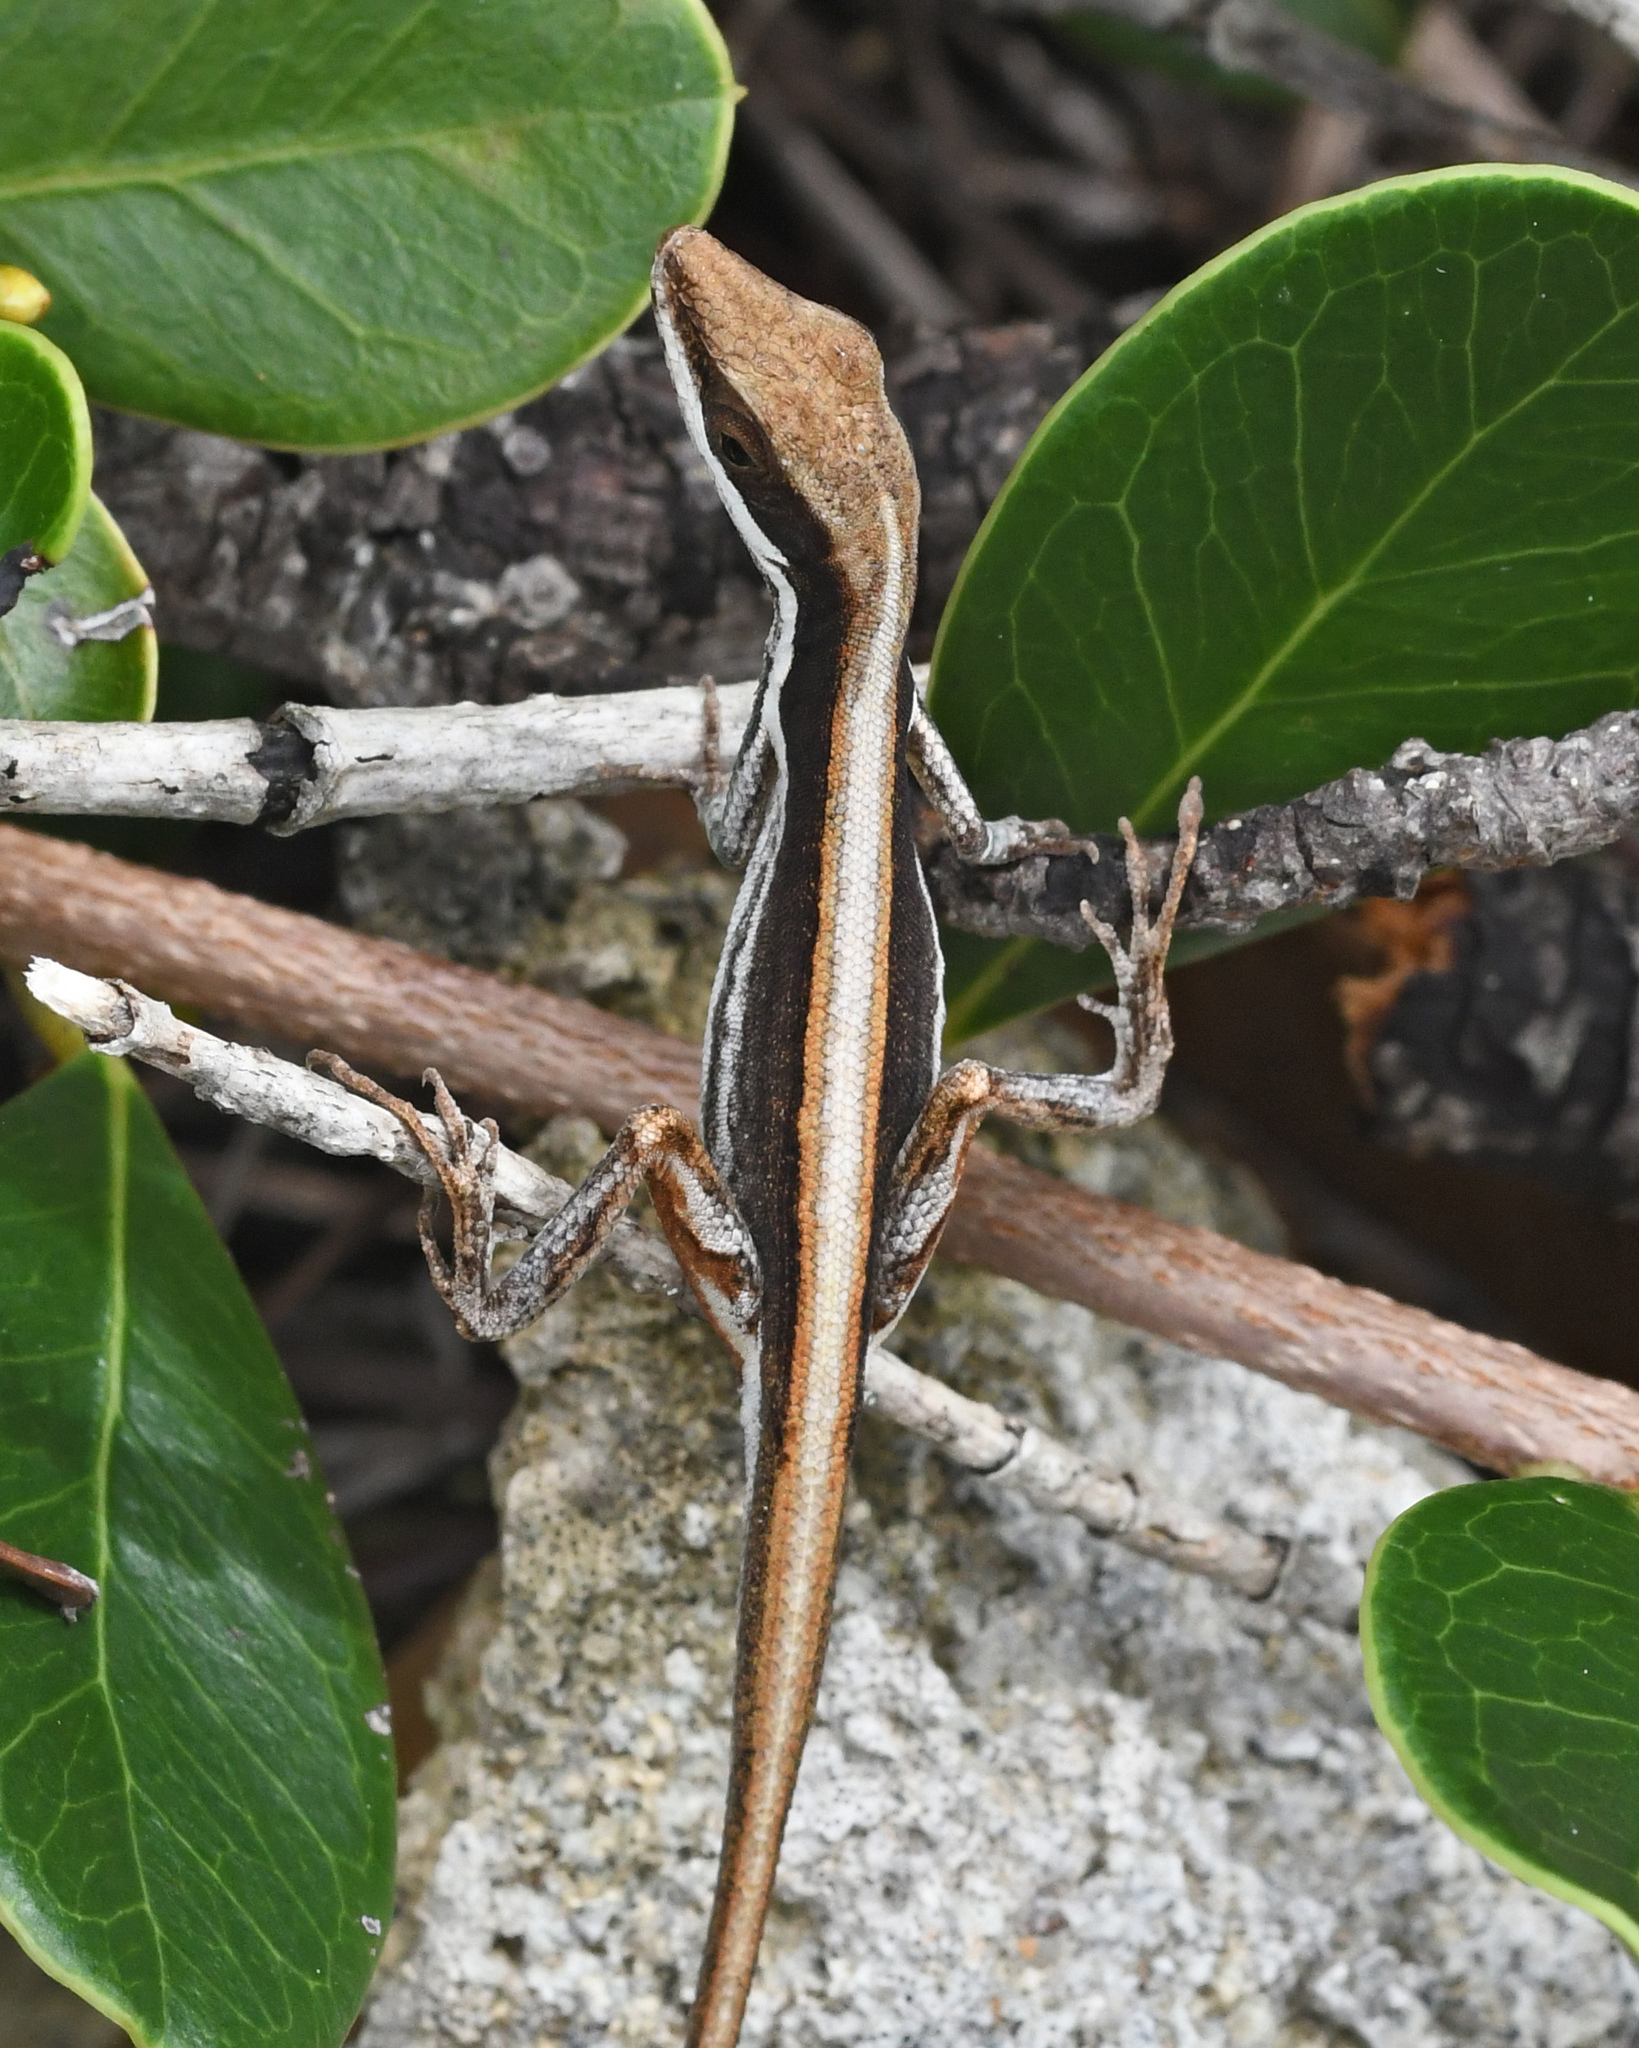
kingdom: Animalia
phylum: Chordata
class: Squamata
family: Dactyloidae
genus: Anolis
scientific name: Anolis alumina
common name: Barahona grass anole
